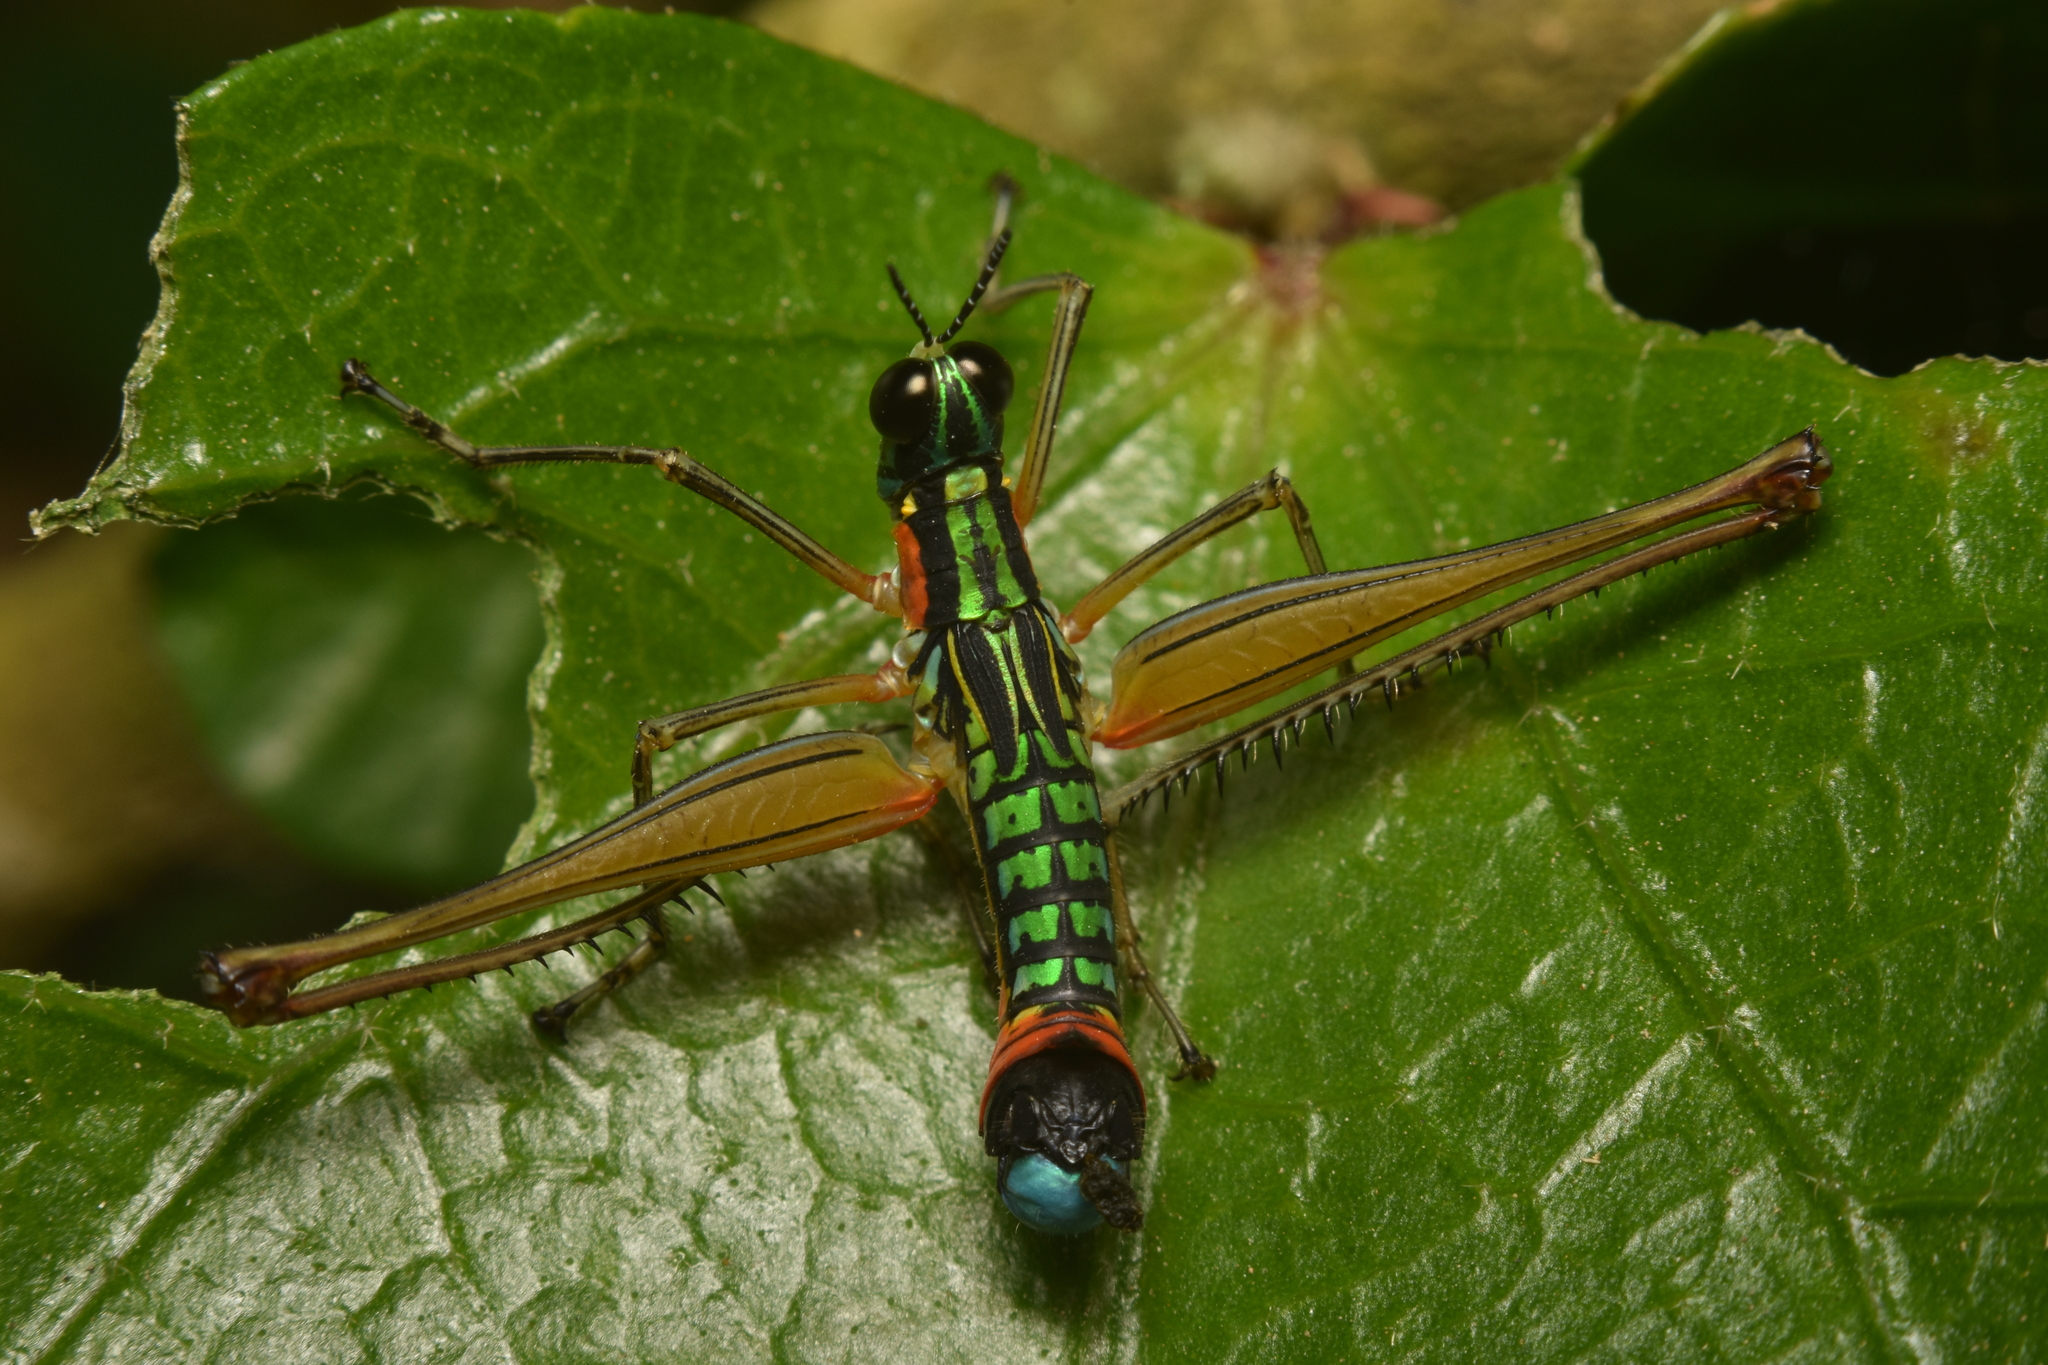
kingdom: Animalia
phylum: Arthropoda
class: Insecta
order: Orthoptera
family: Eumastacidae
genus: Paramastax
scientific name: Paramastax poecilosoma
